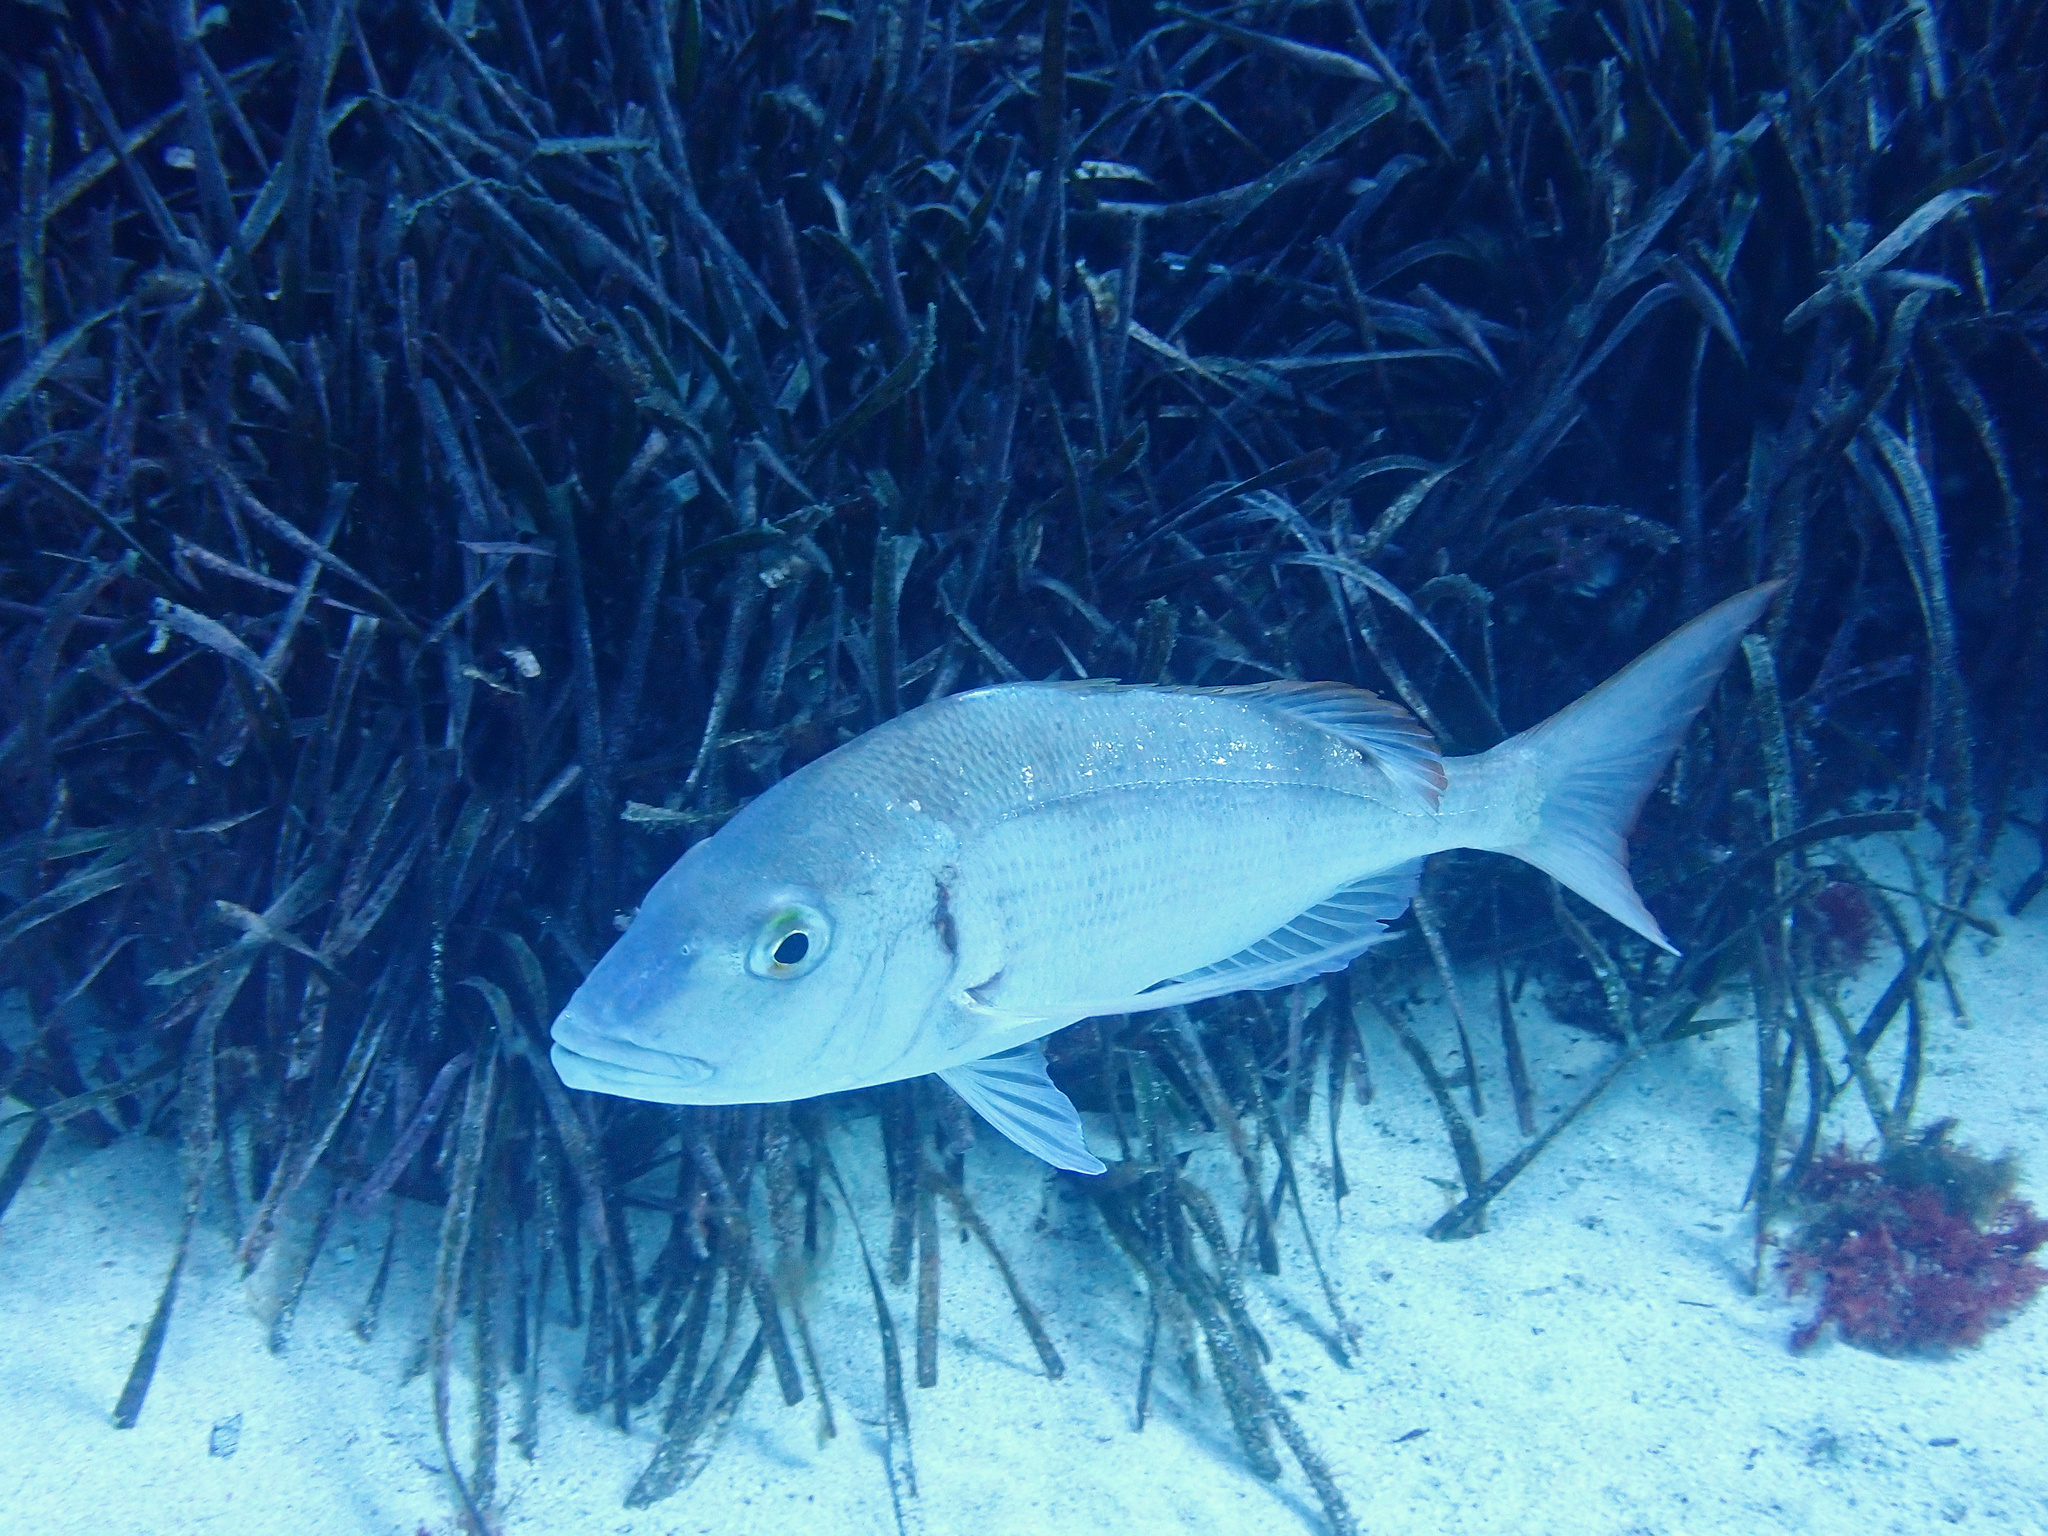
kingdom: Animalia
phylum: Chordata
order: Perciformes
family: Sparidae
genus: Pagellus
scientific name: Pagellus erythrinus
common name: Pandora
